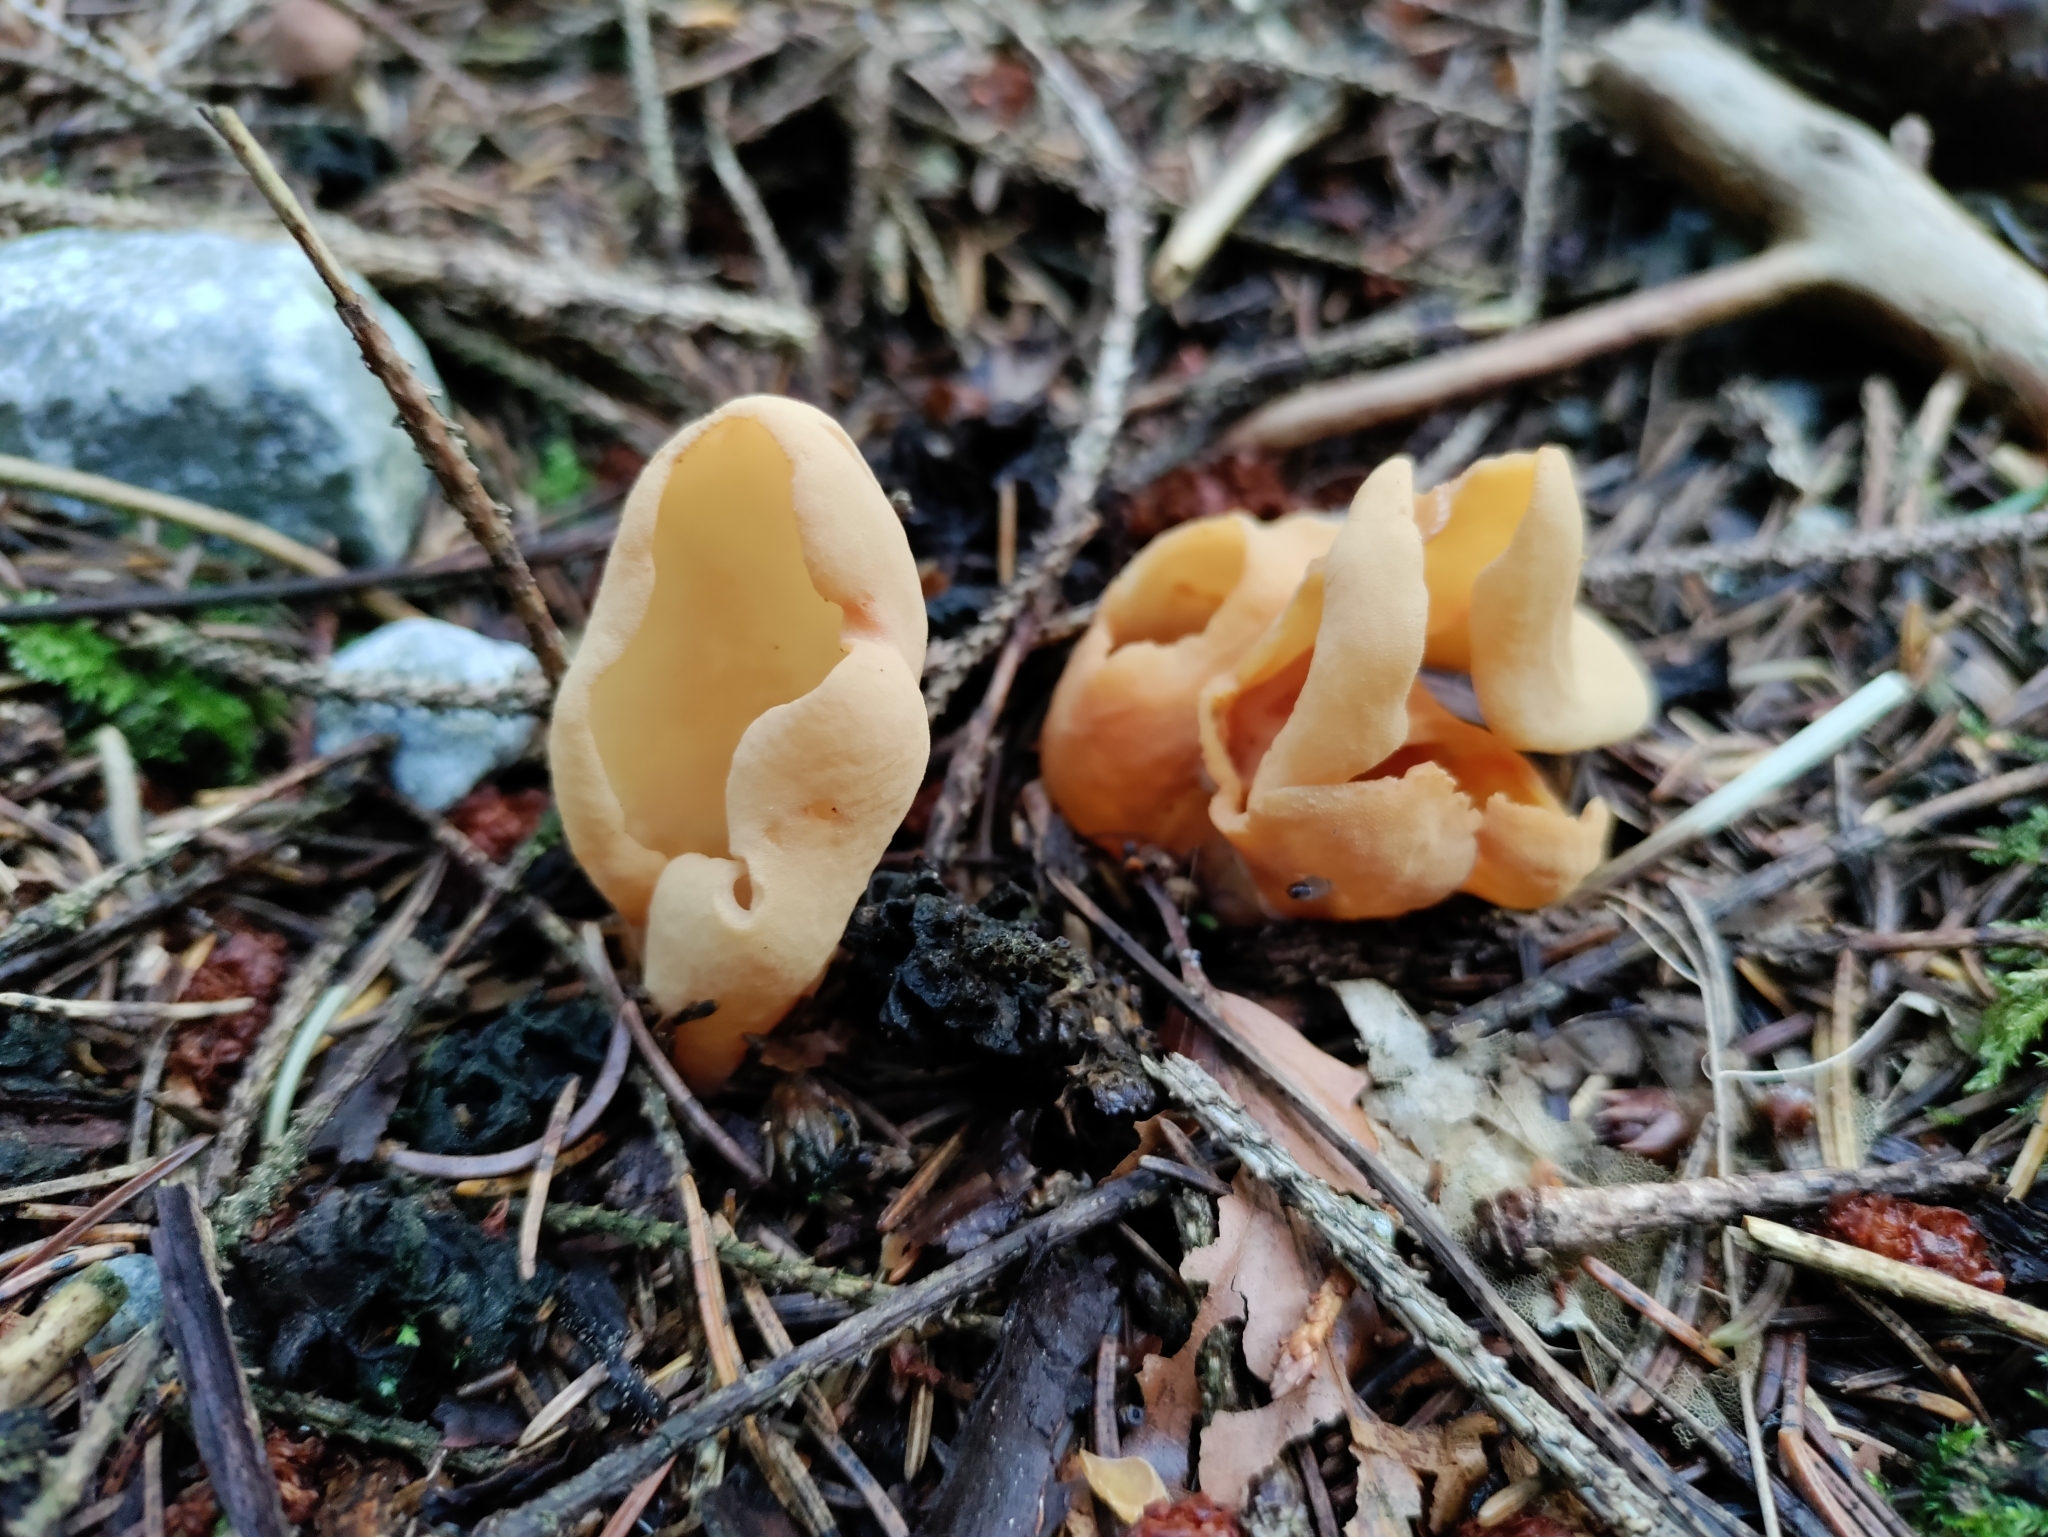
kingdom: Fungi
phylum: Ascomycota
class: Pezizomycetes
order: Pezizales
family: Otideaceae
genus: Otidea
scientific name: Otidea onotica
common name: Hare's ear
